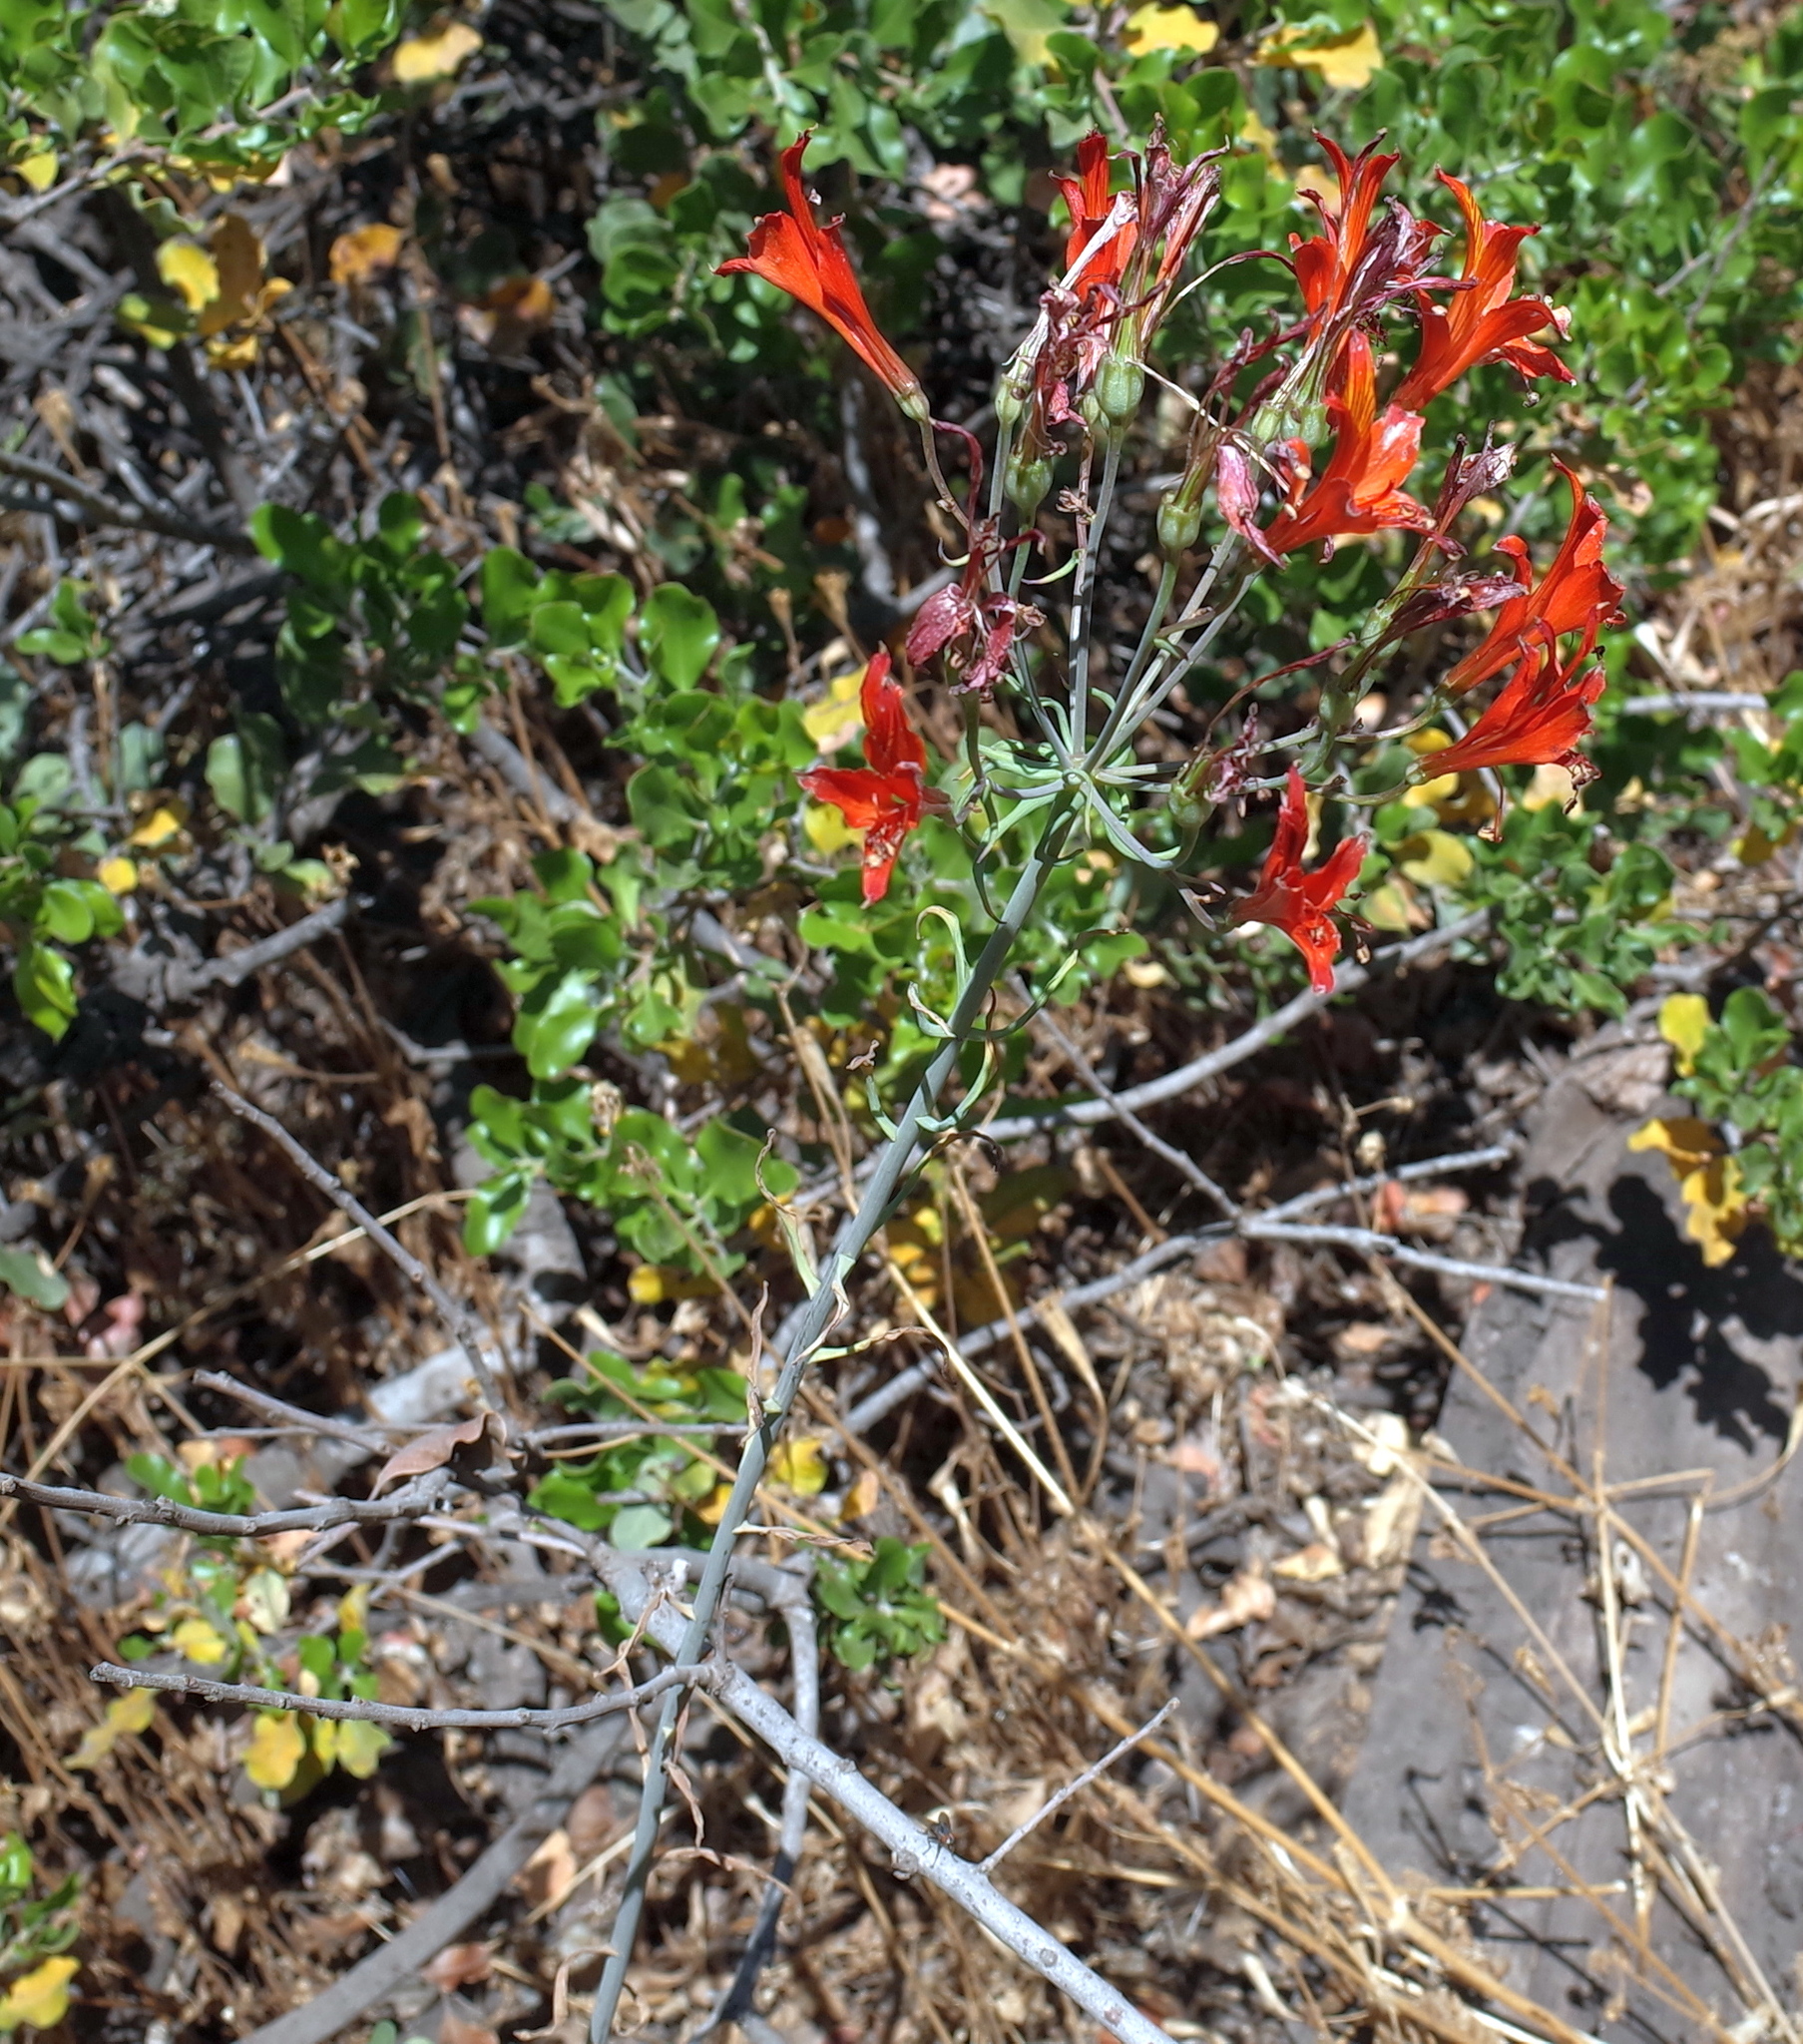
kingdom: Plantae
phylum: Tracheophyta
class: Liliopsida
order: Liliales
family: Alstroemeriaceae
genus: Alstroemeria
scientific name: Alstroemeria ligtu
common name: St. martin's-flower
